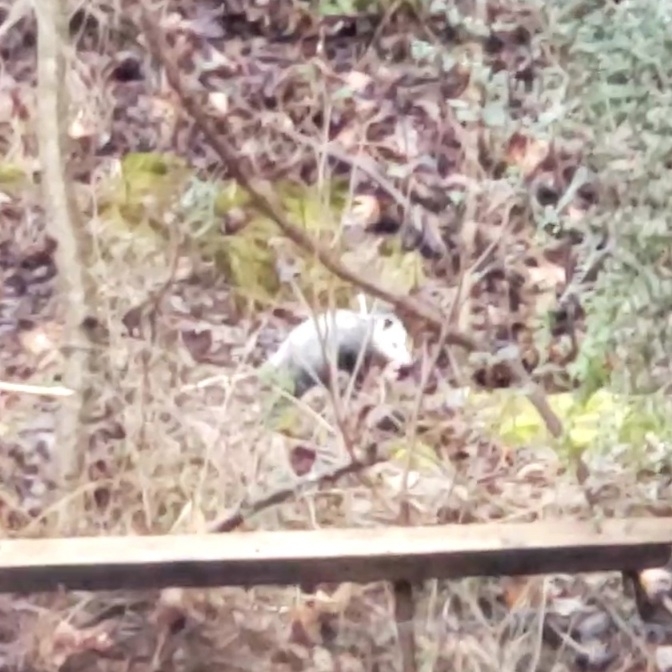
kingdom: Animalia
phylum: Chordata
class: Mammalia
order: Didelphimorphia
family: Didelphidae
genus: Didelphis
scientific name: Didelphis virginiana
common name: Virginia opossum
